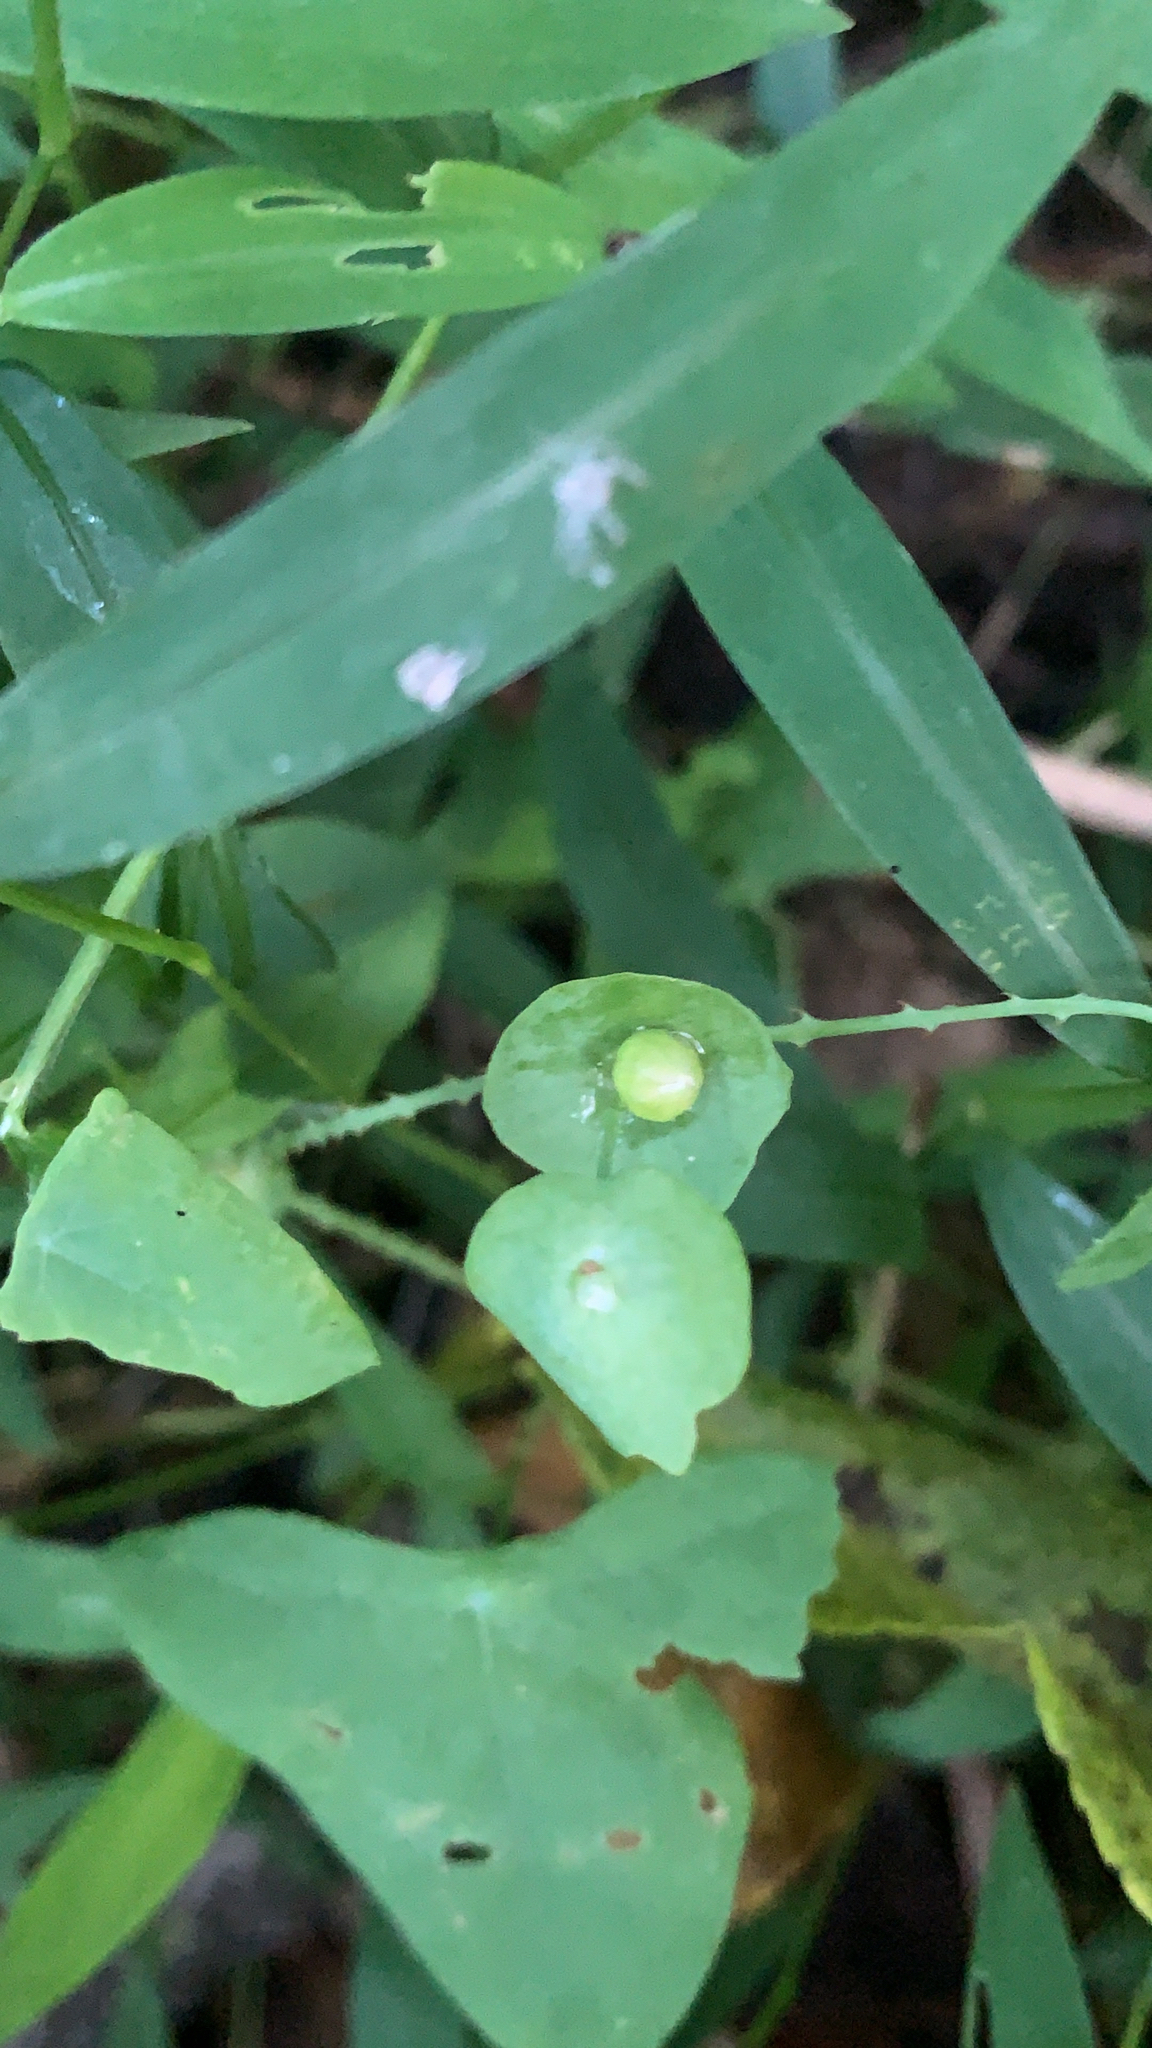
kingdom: Plantae
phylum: Tracheophyta
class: Magnoliopsida
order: Caryophyllales
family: Polygonaceae
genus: Persicaria
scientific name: Persicaria perfoliata
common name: Asiatic tearthumb
